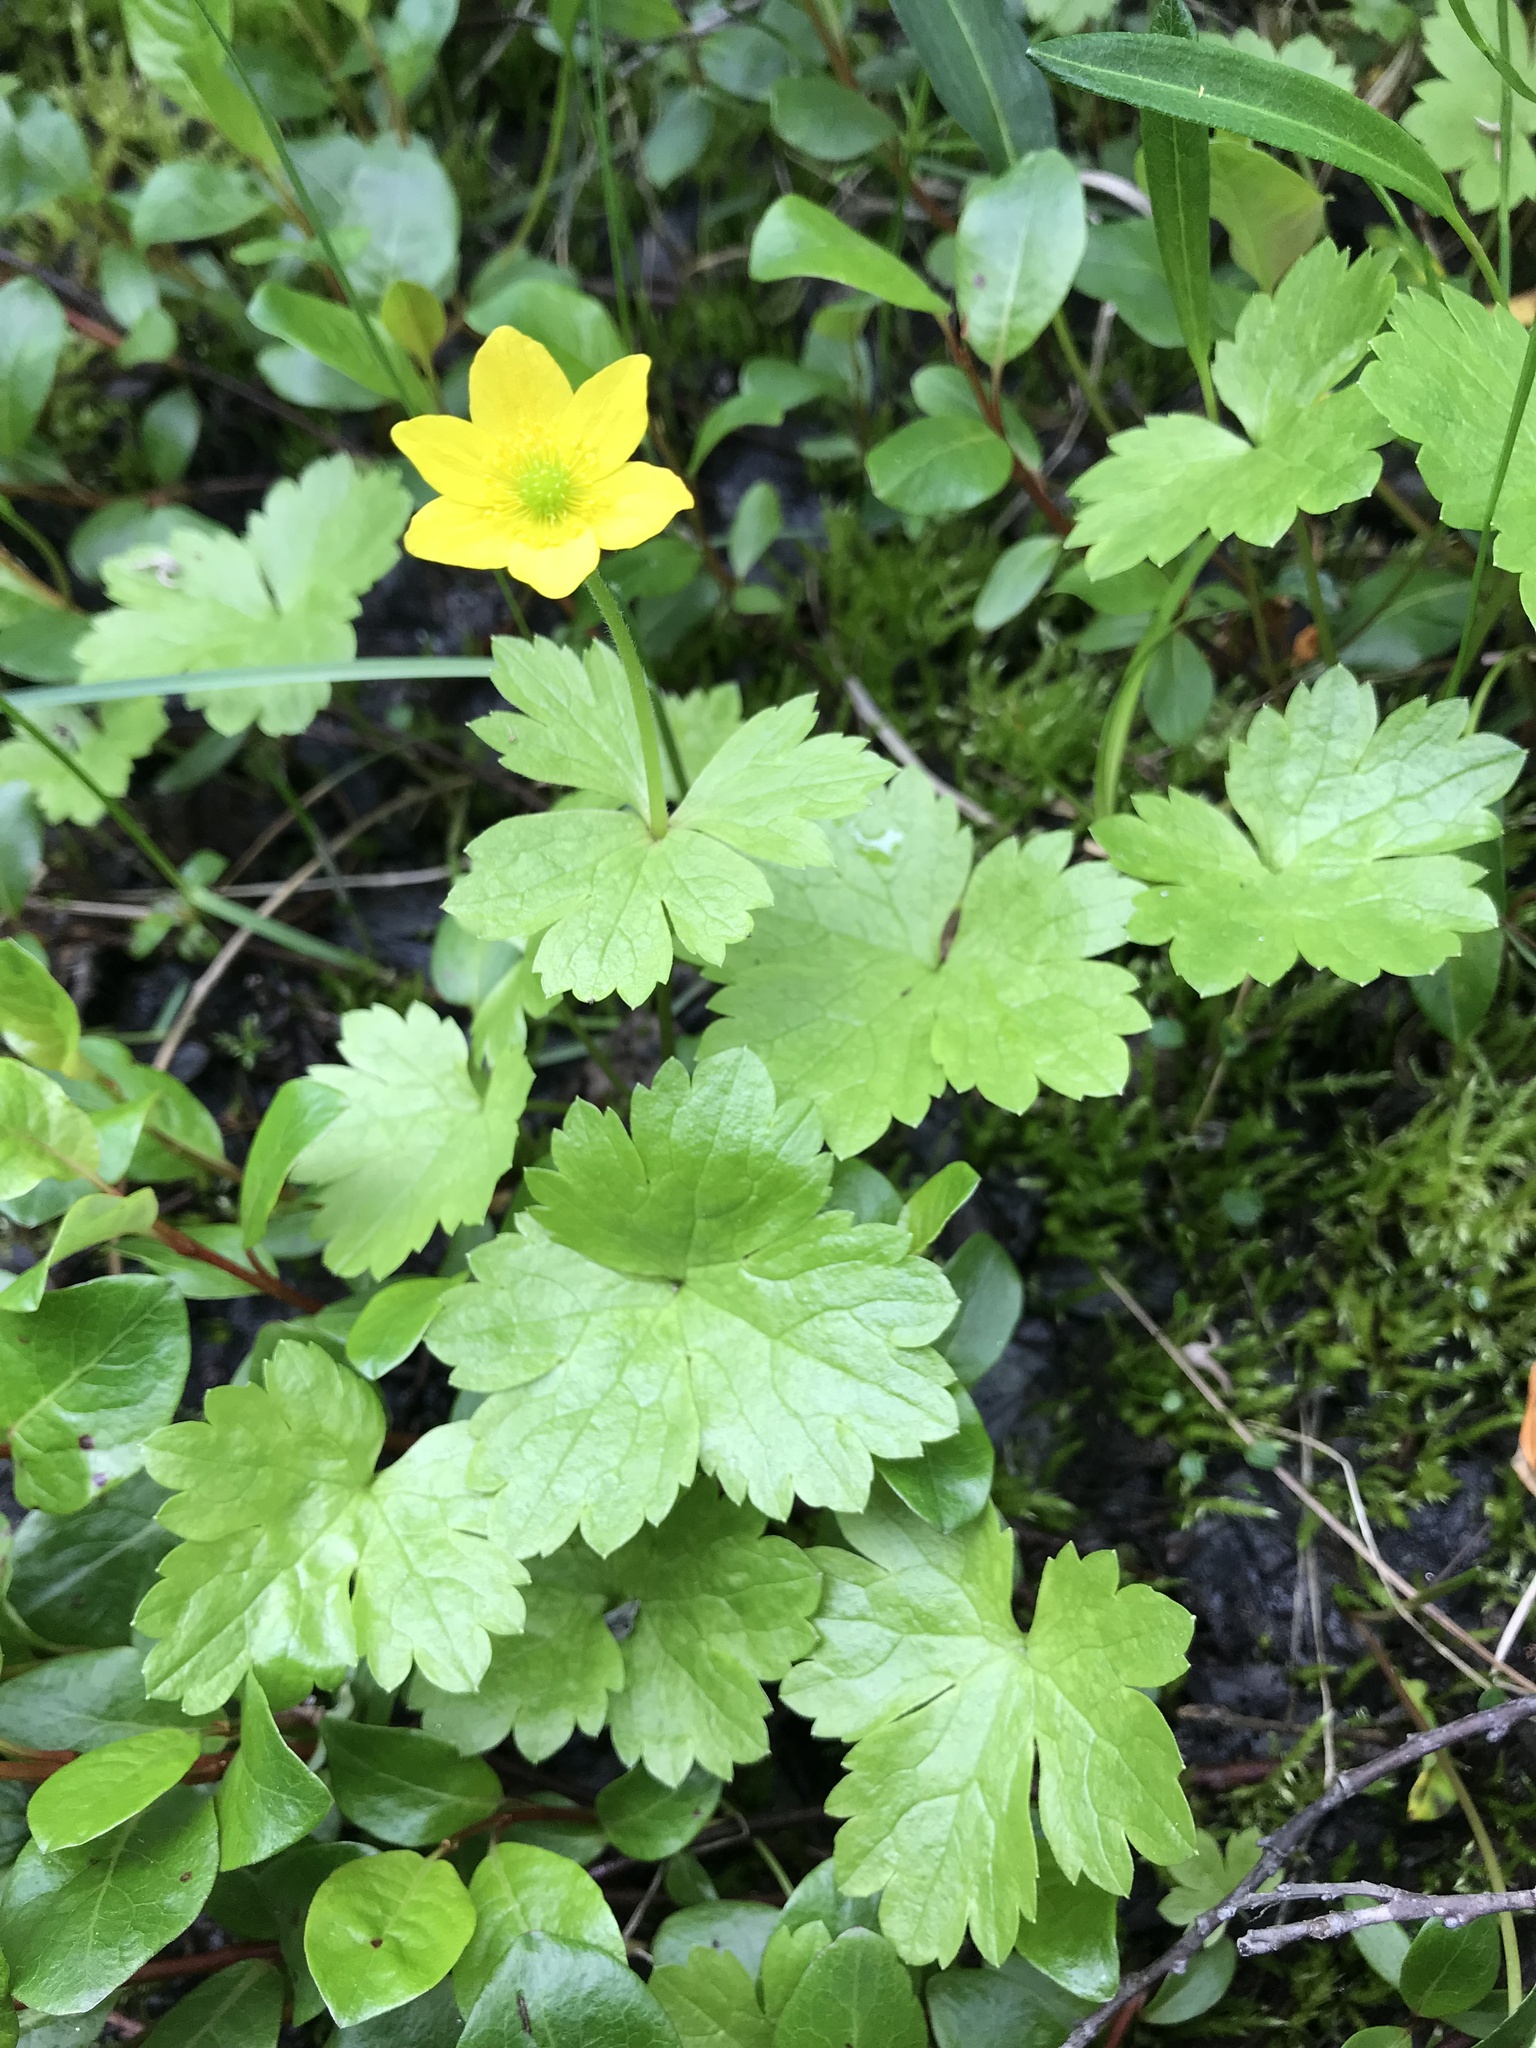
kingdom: Plantae
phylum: Tracheophyta
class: Magnoliopsida
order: Ranunculales
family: Ranunculaceae
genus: Anemonastrum
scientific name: Anemonastrum richardsonii
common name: Richardson's anemone
